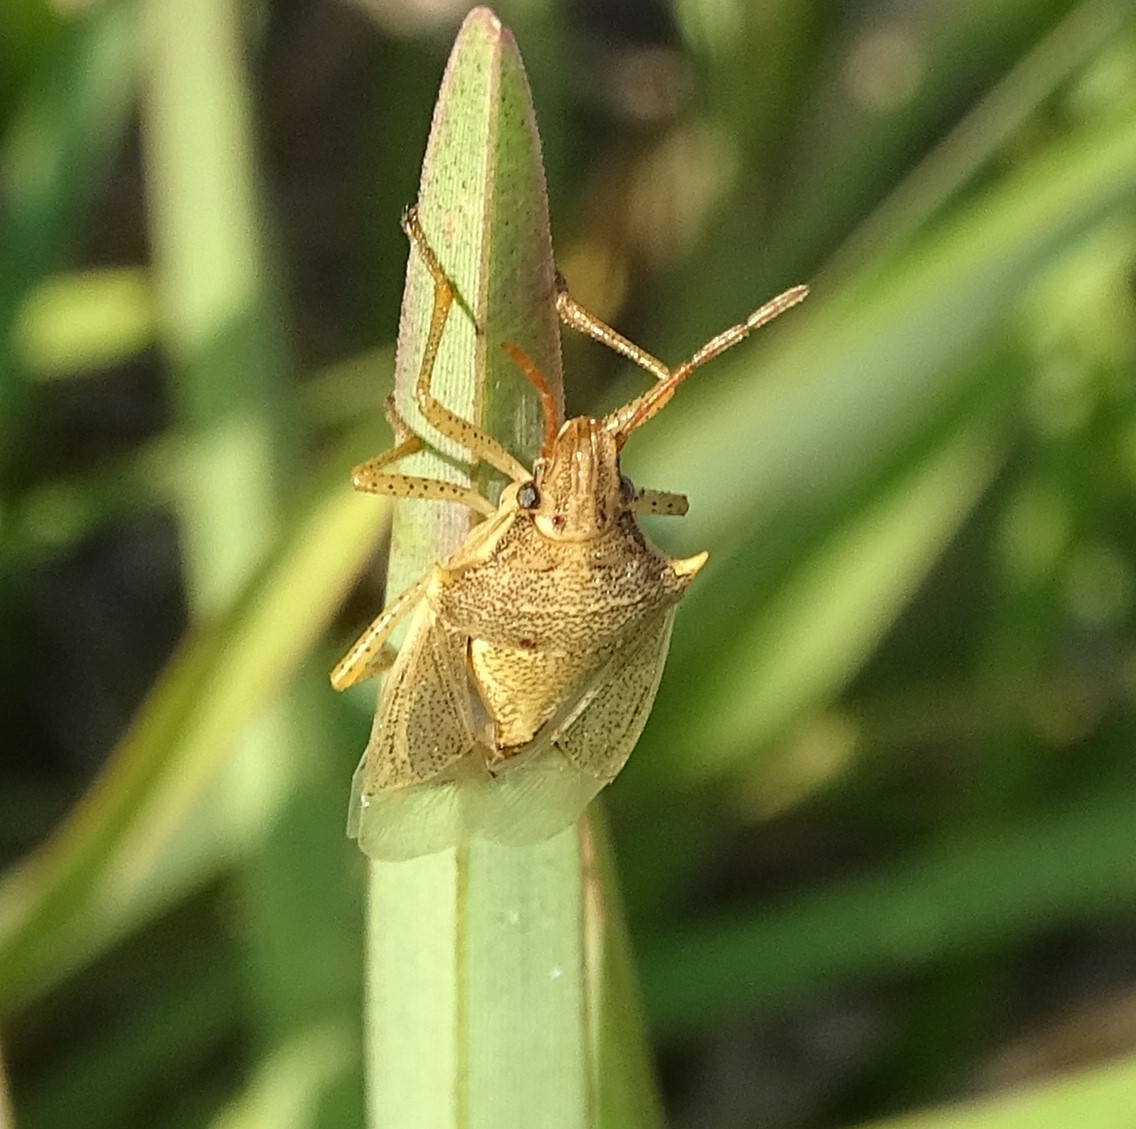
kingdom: Animalia
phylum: Arthropoda
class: Insecta
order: Hemiptera
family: Pentatomidae
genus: Oebalus
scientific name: Oebalus pugnax
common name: Rice stink bug
